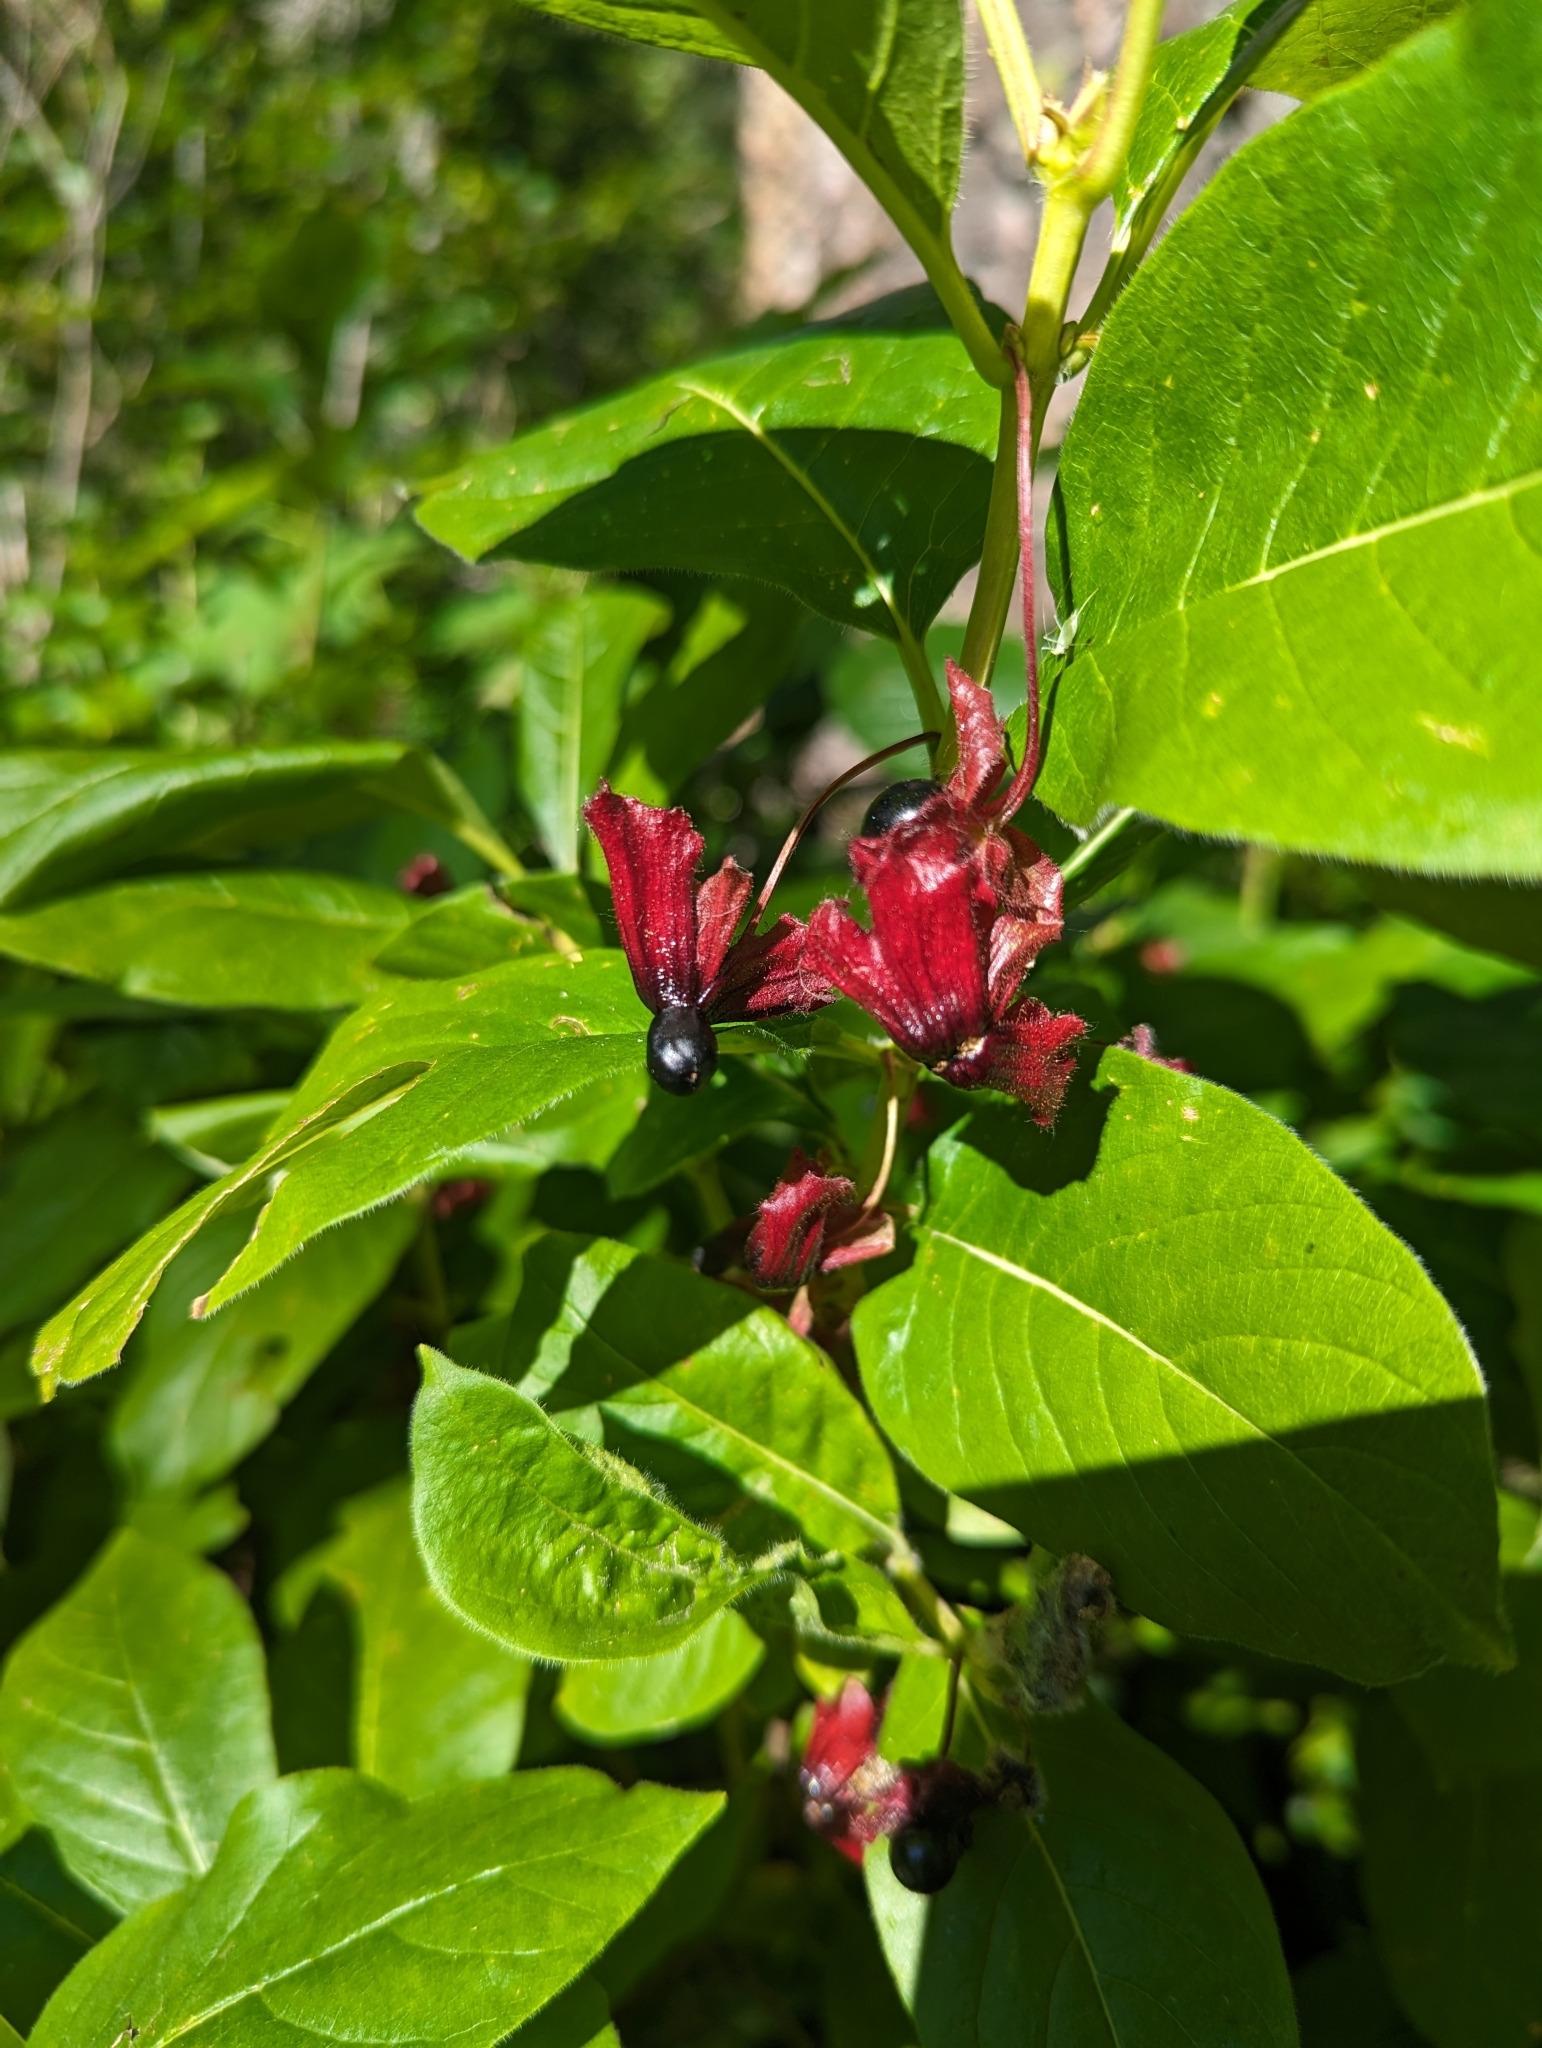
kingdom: Plantae
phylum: Tracheophyta
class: Magnoliopsida
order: Dipsacales
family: Caprifoliaceae
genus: Lonicera
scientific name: Lonicera involucrata
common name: Californian honeysuckle
